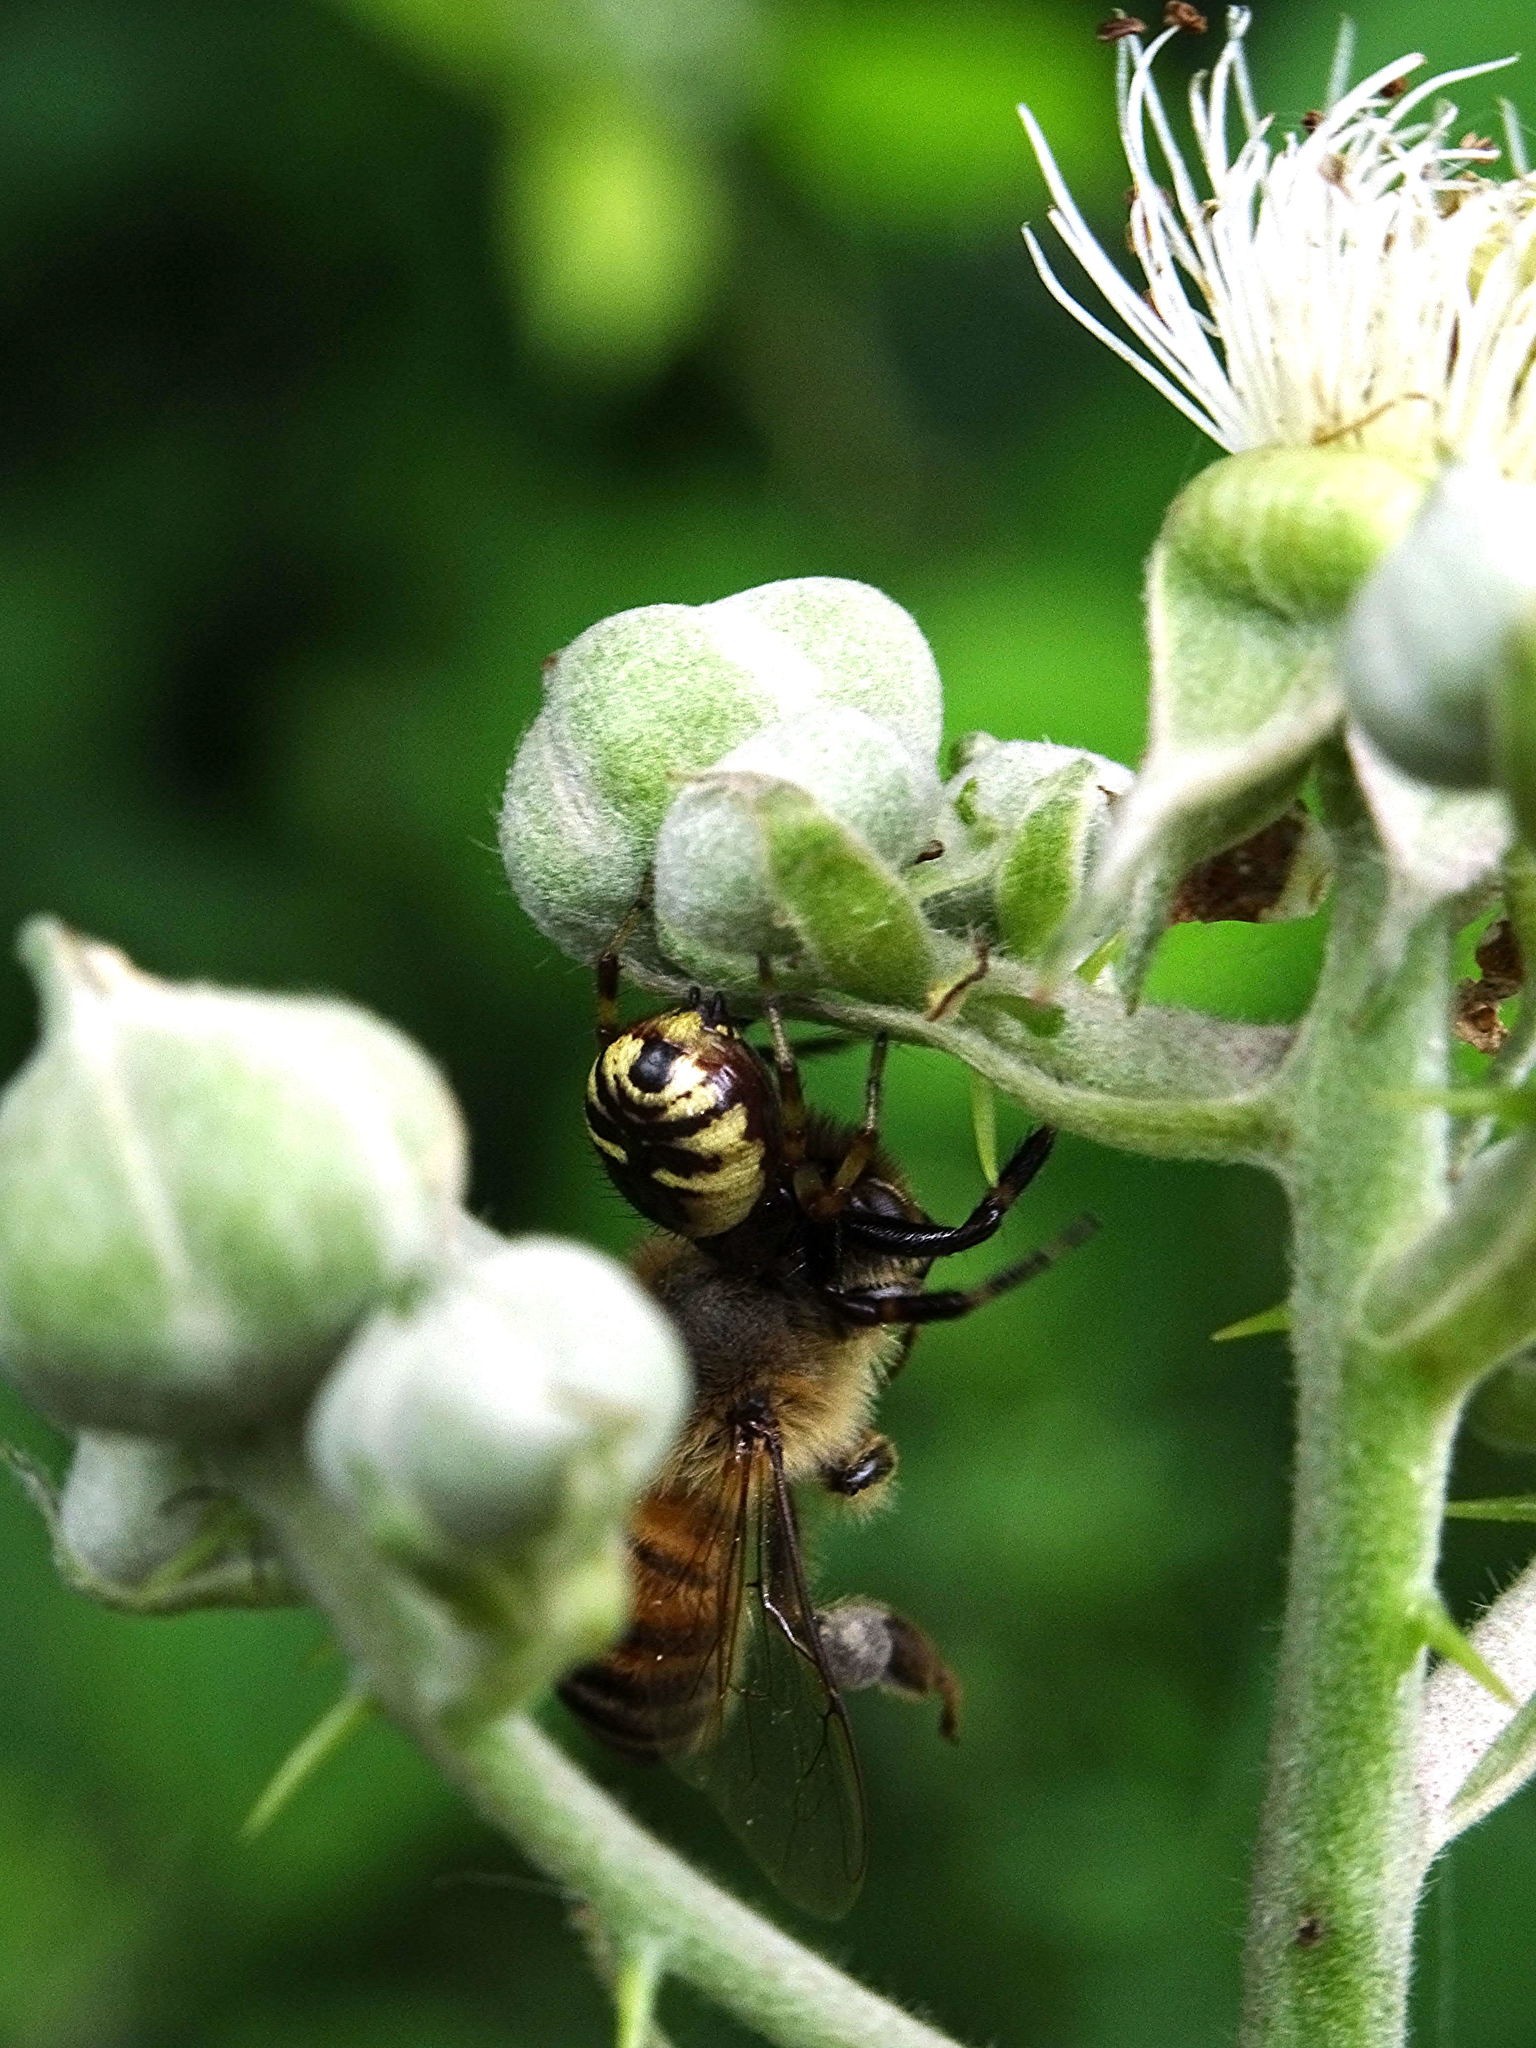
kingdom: Animalia
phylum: Arthropoda
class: Arachnida
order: Araneae
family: Thomisidae
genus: Synema
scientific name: Synema globosum
